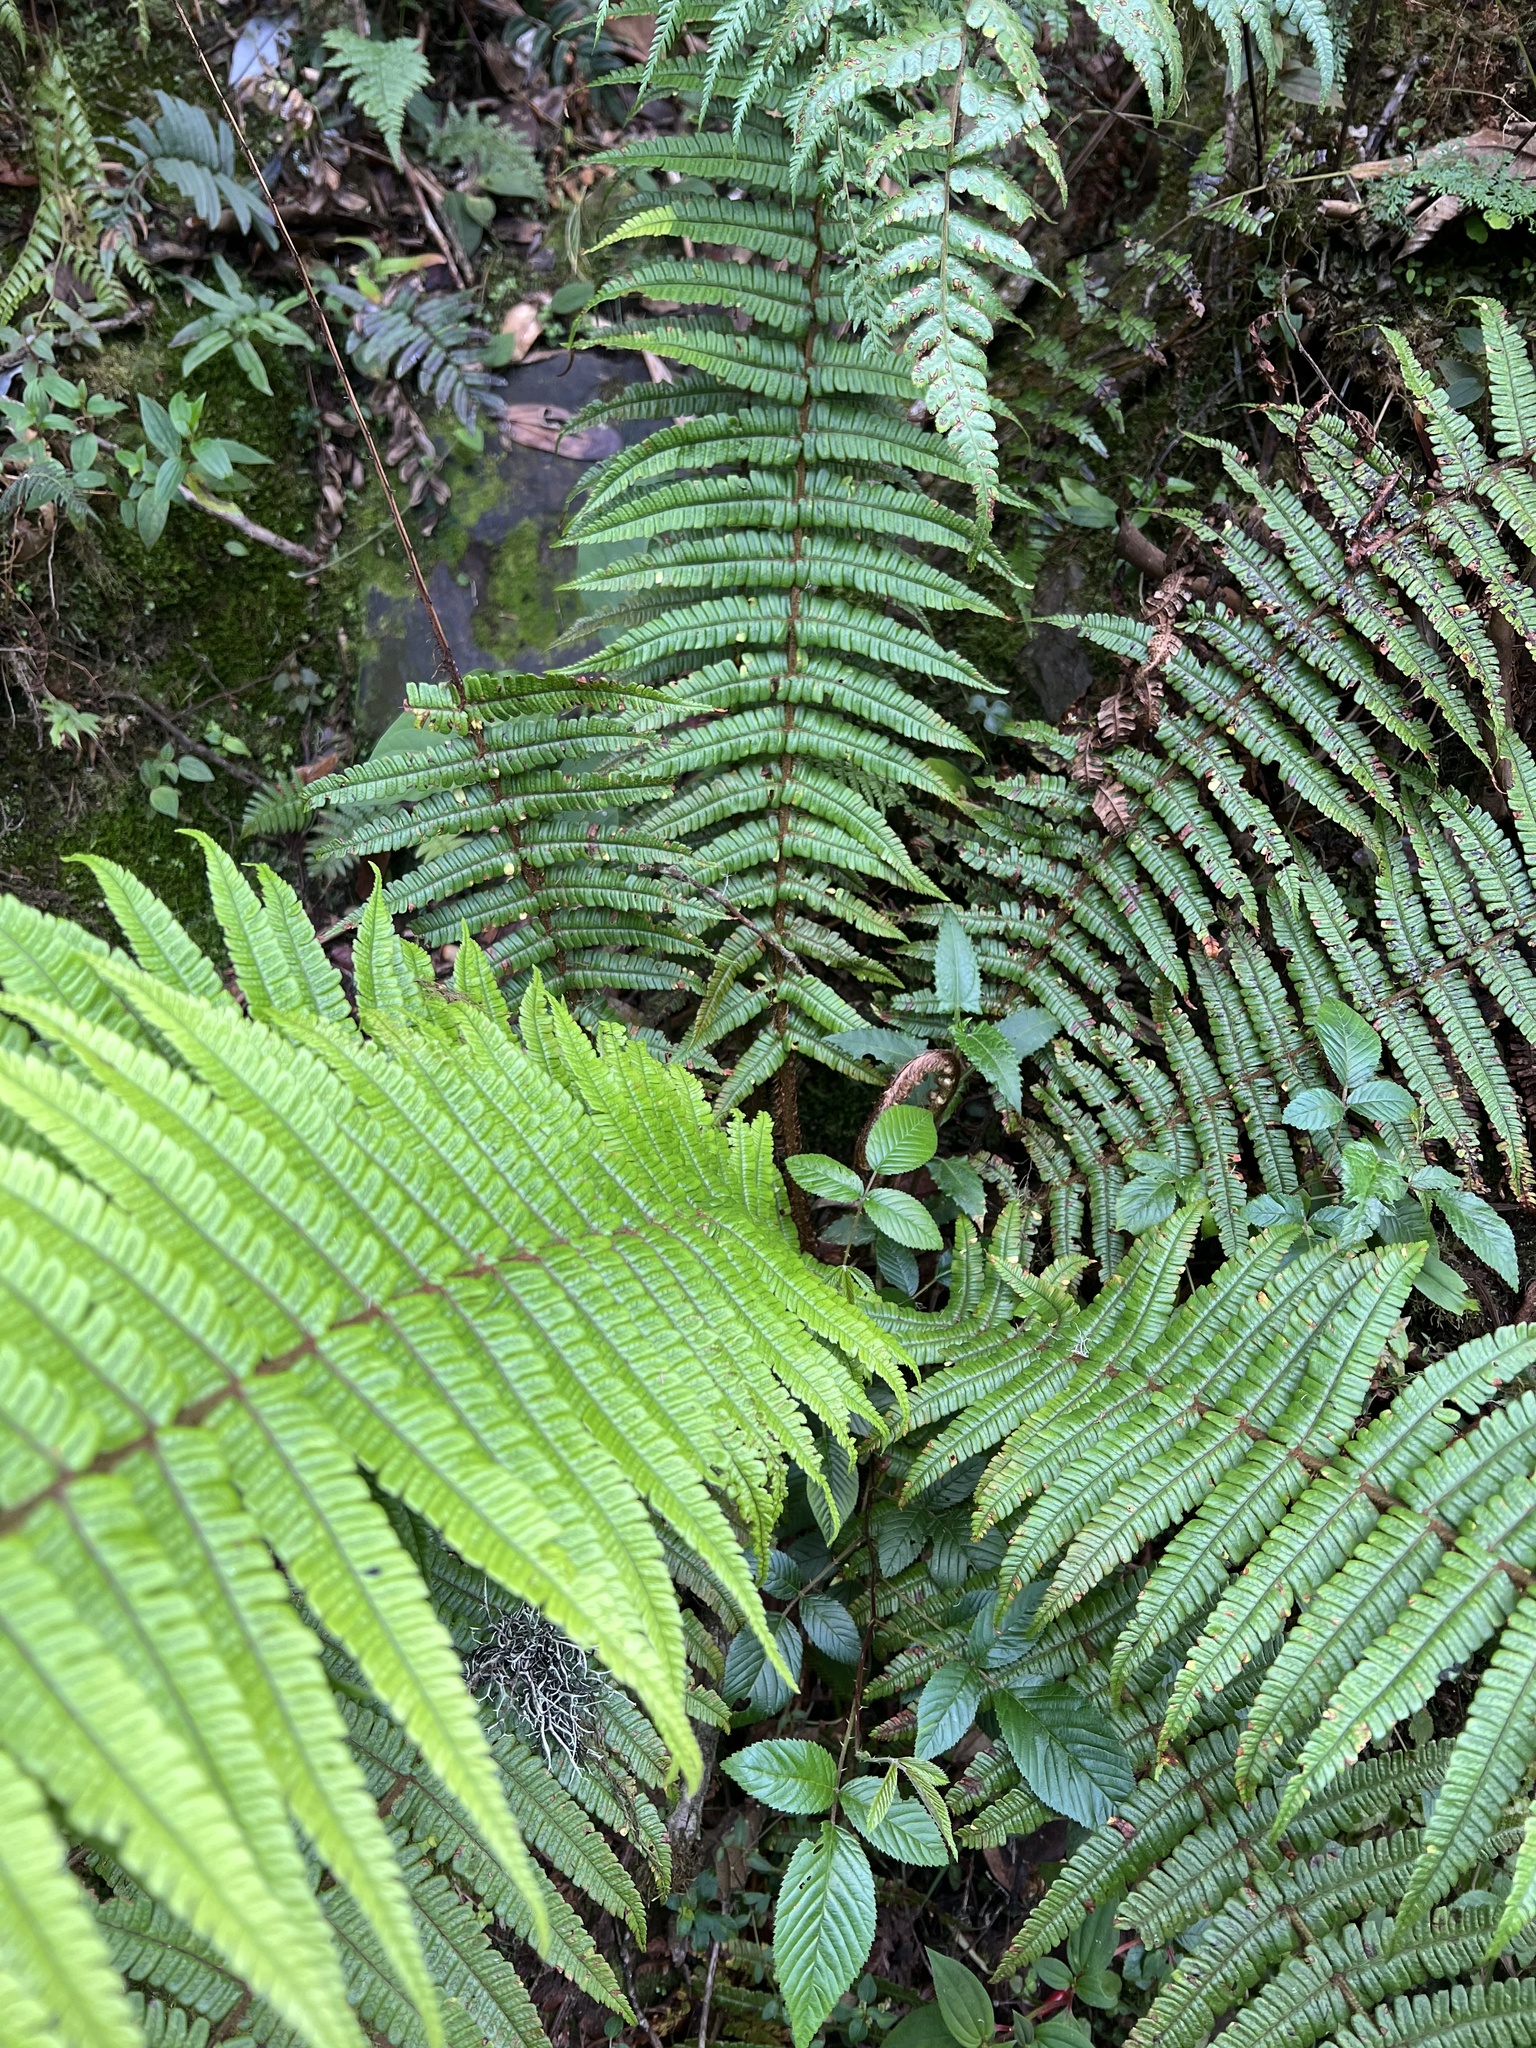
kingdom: Plantae
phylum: Tracheophyta
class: Polypodiopsida
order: Polypodiales
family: Dryopteridaceae
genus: Dryopteris
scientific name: Dryopteris wallichiana
